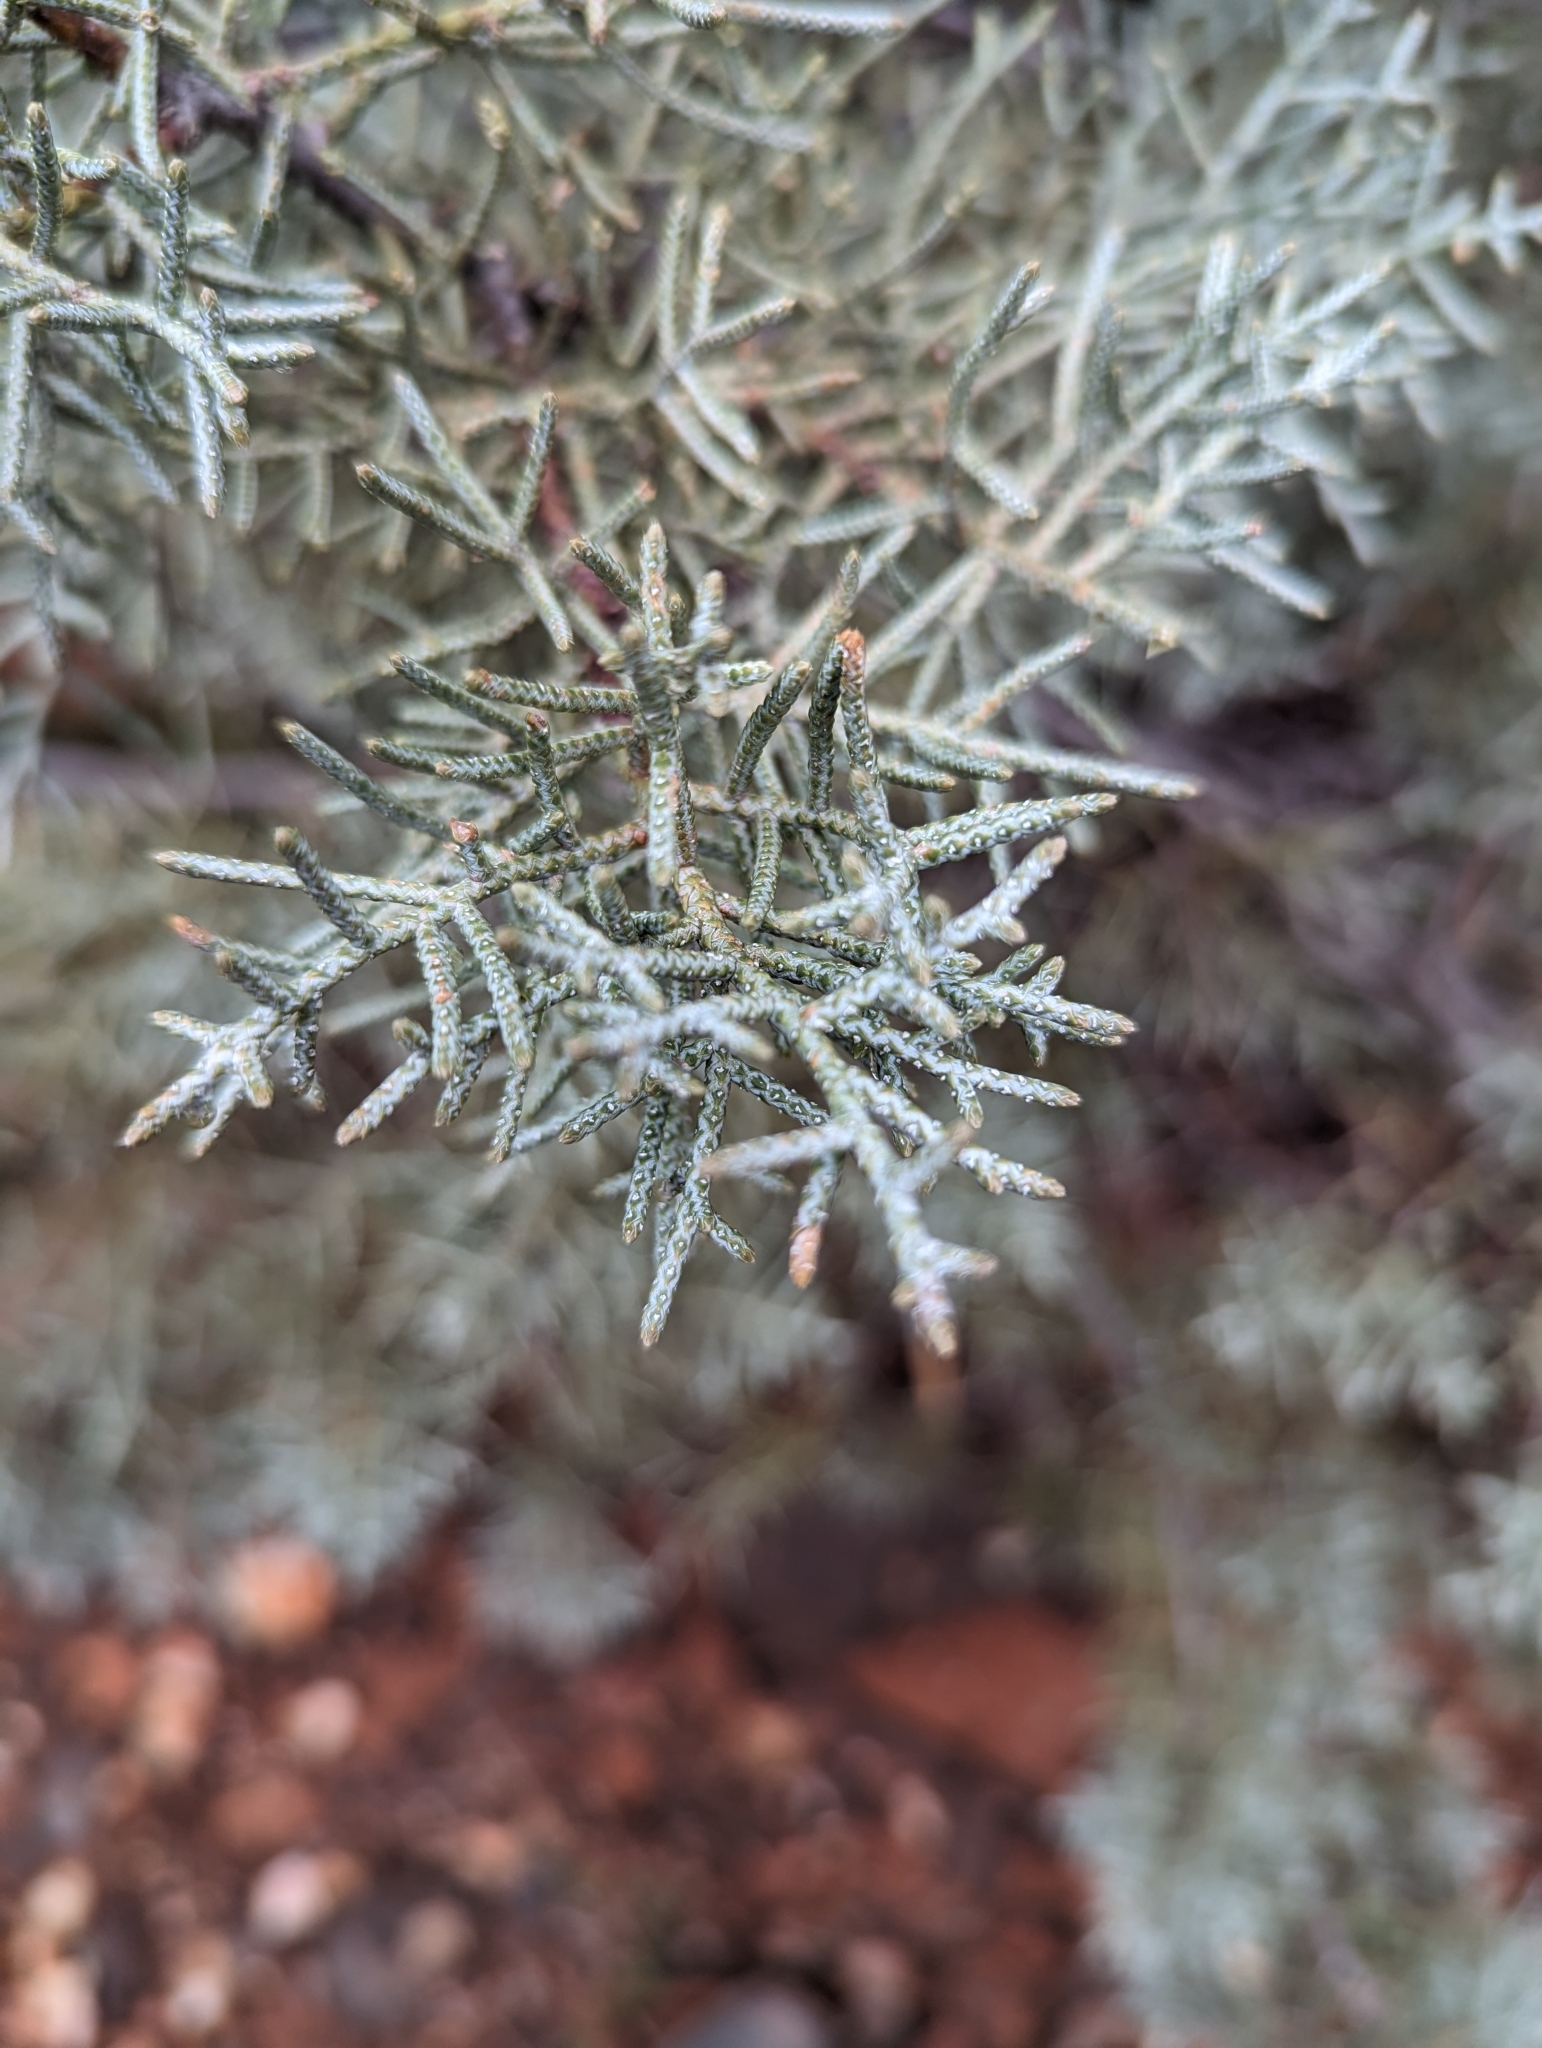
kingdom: Plantae
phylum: Tracheophyta
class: Pinopsida
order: Pinales
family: Cupressaceae
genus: Cupressus
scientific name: Cupressus arizonica
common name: Arizona cypress
